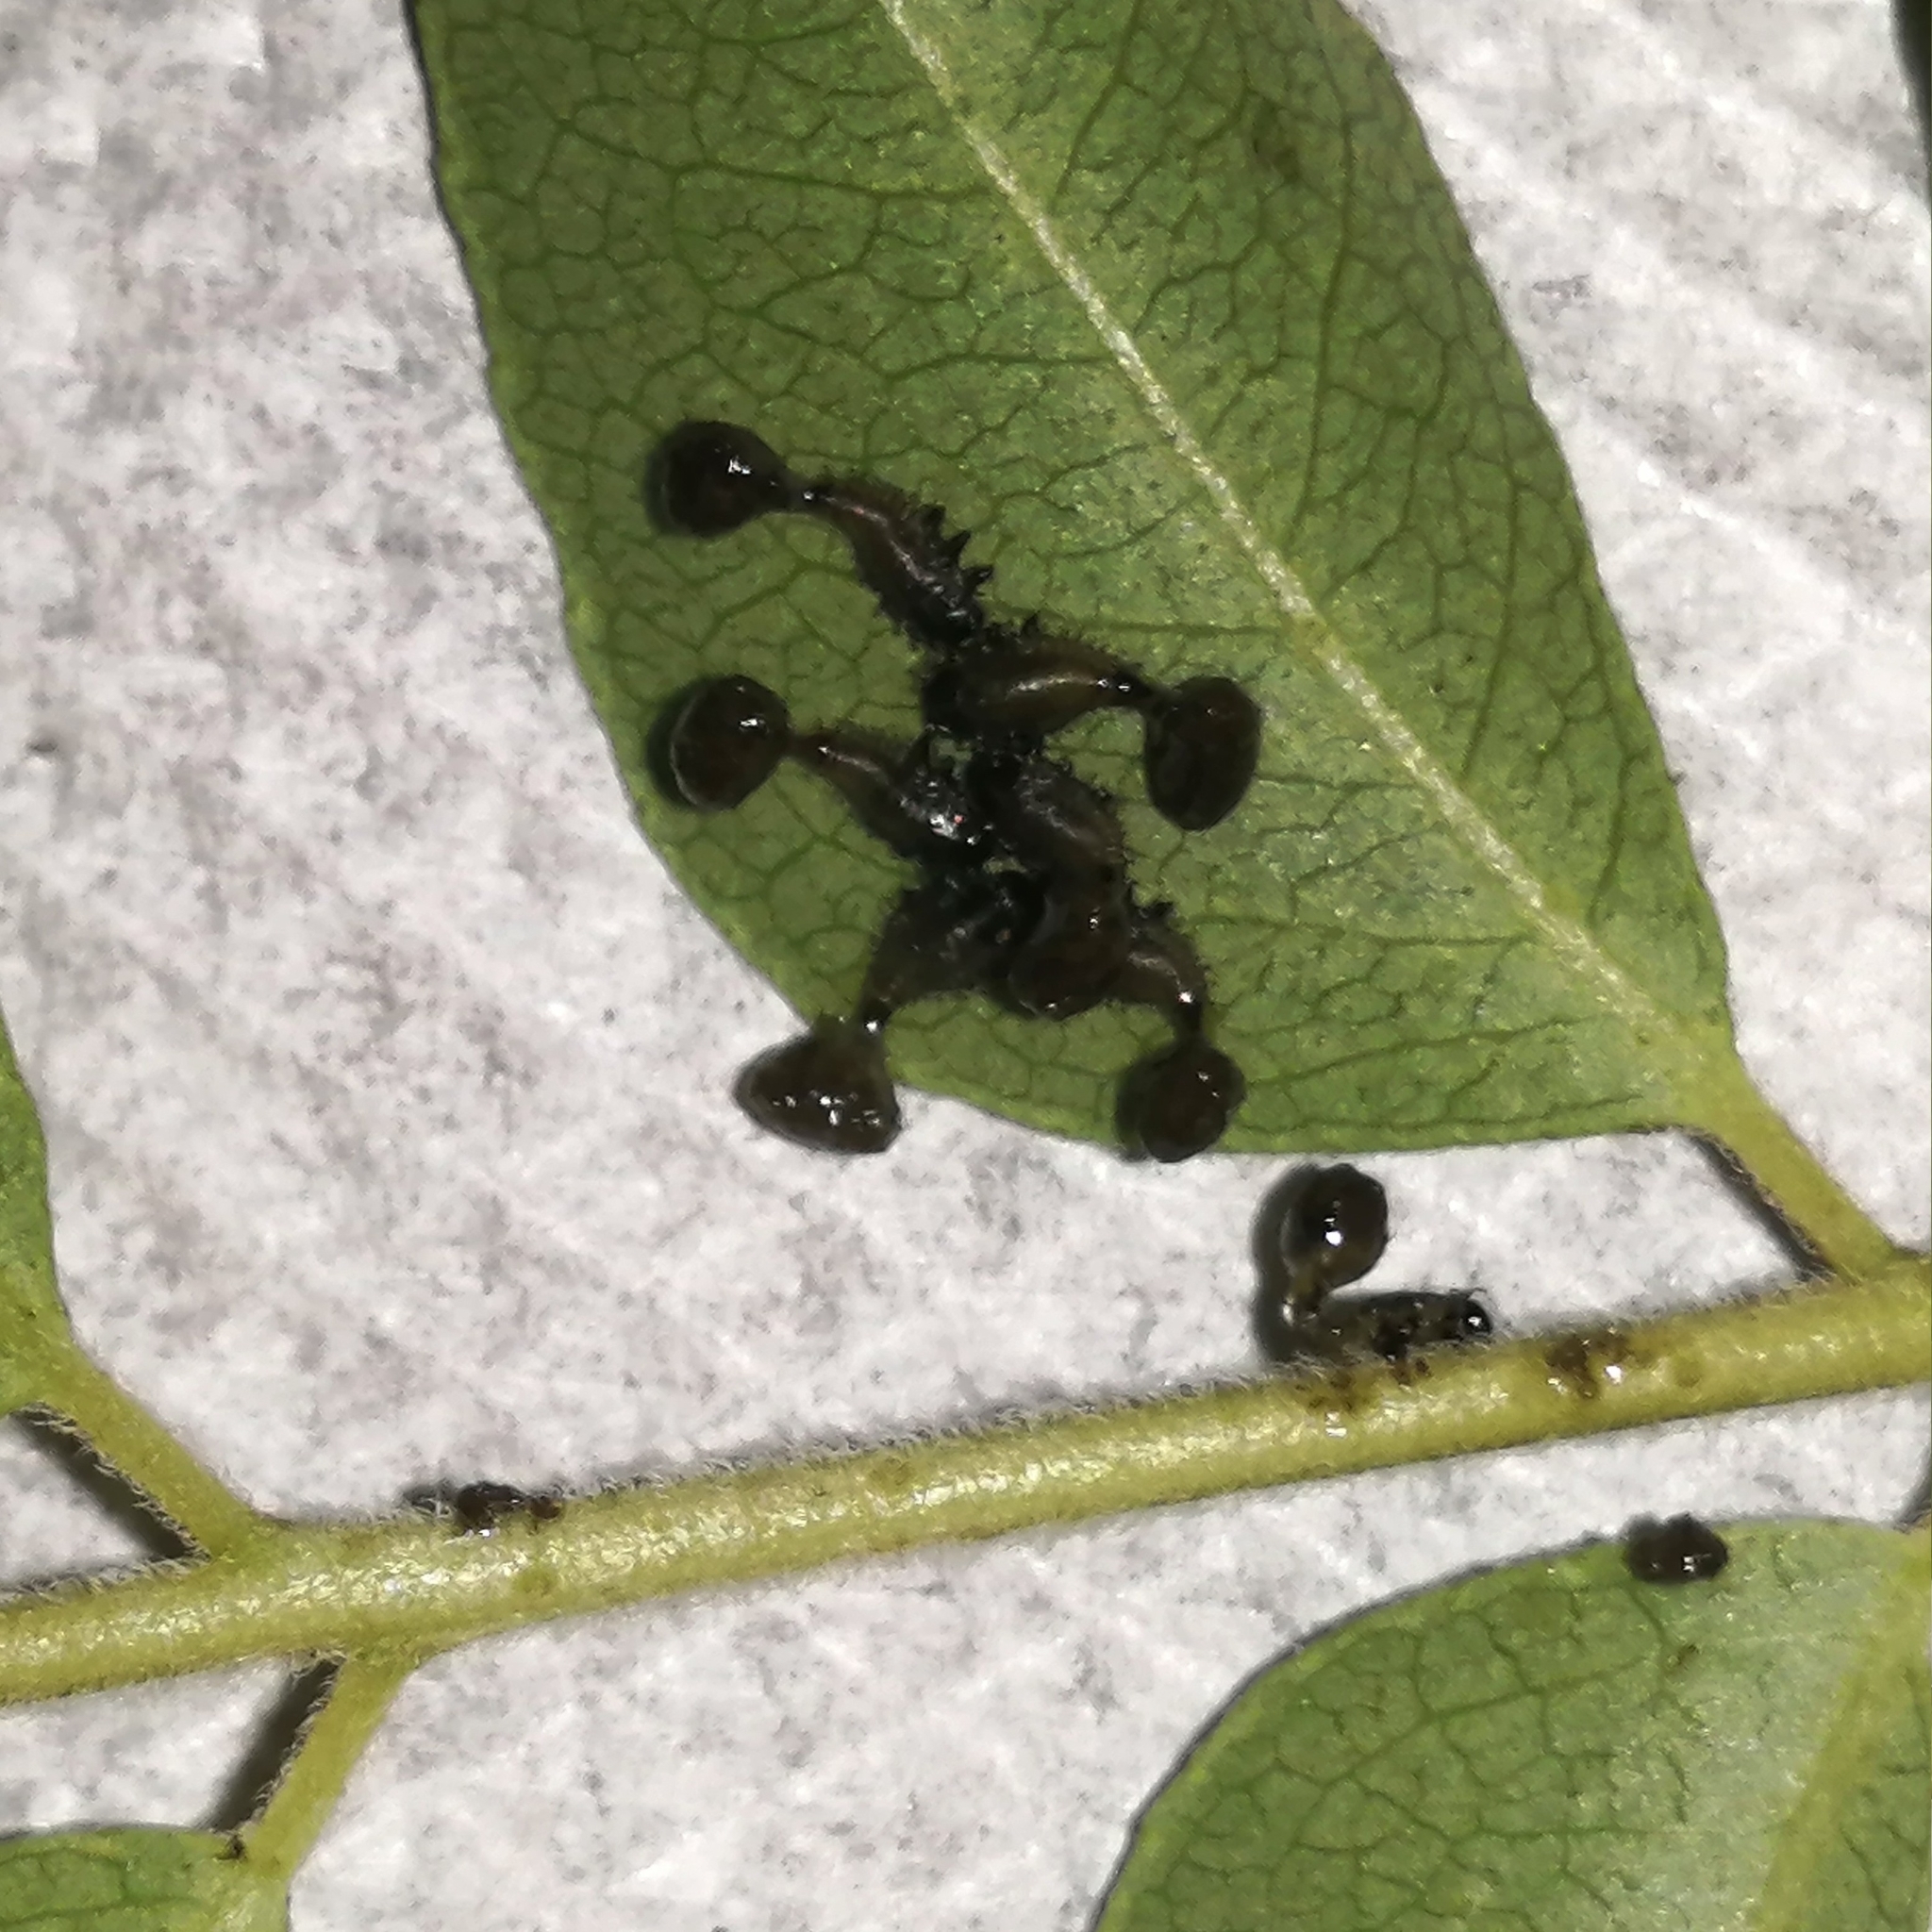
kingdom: Animalia
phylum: Arthropoda
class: Insecta
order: Coleoptera
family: Chrysomelidae
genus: Silana
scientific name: Silana farinosa
